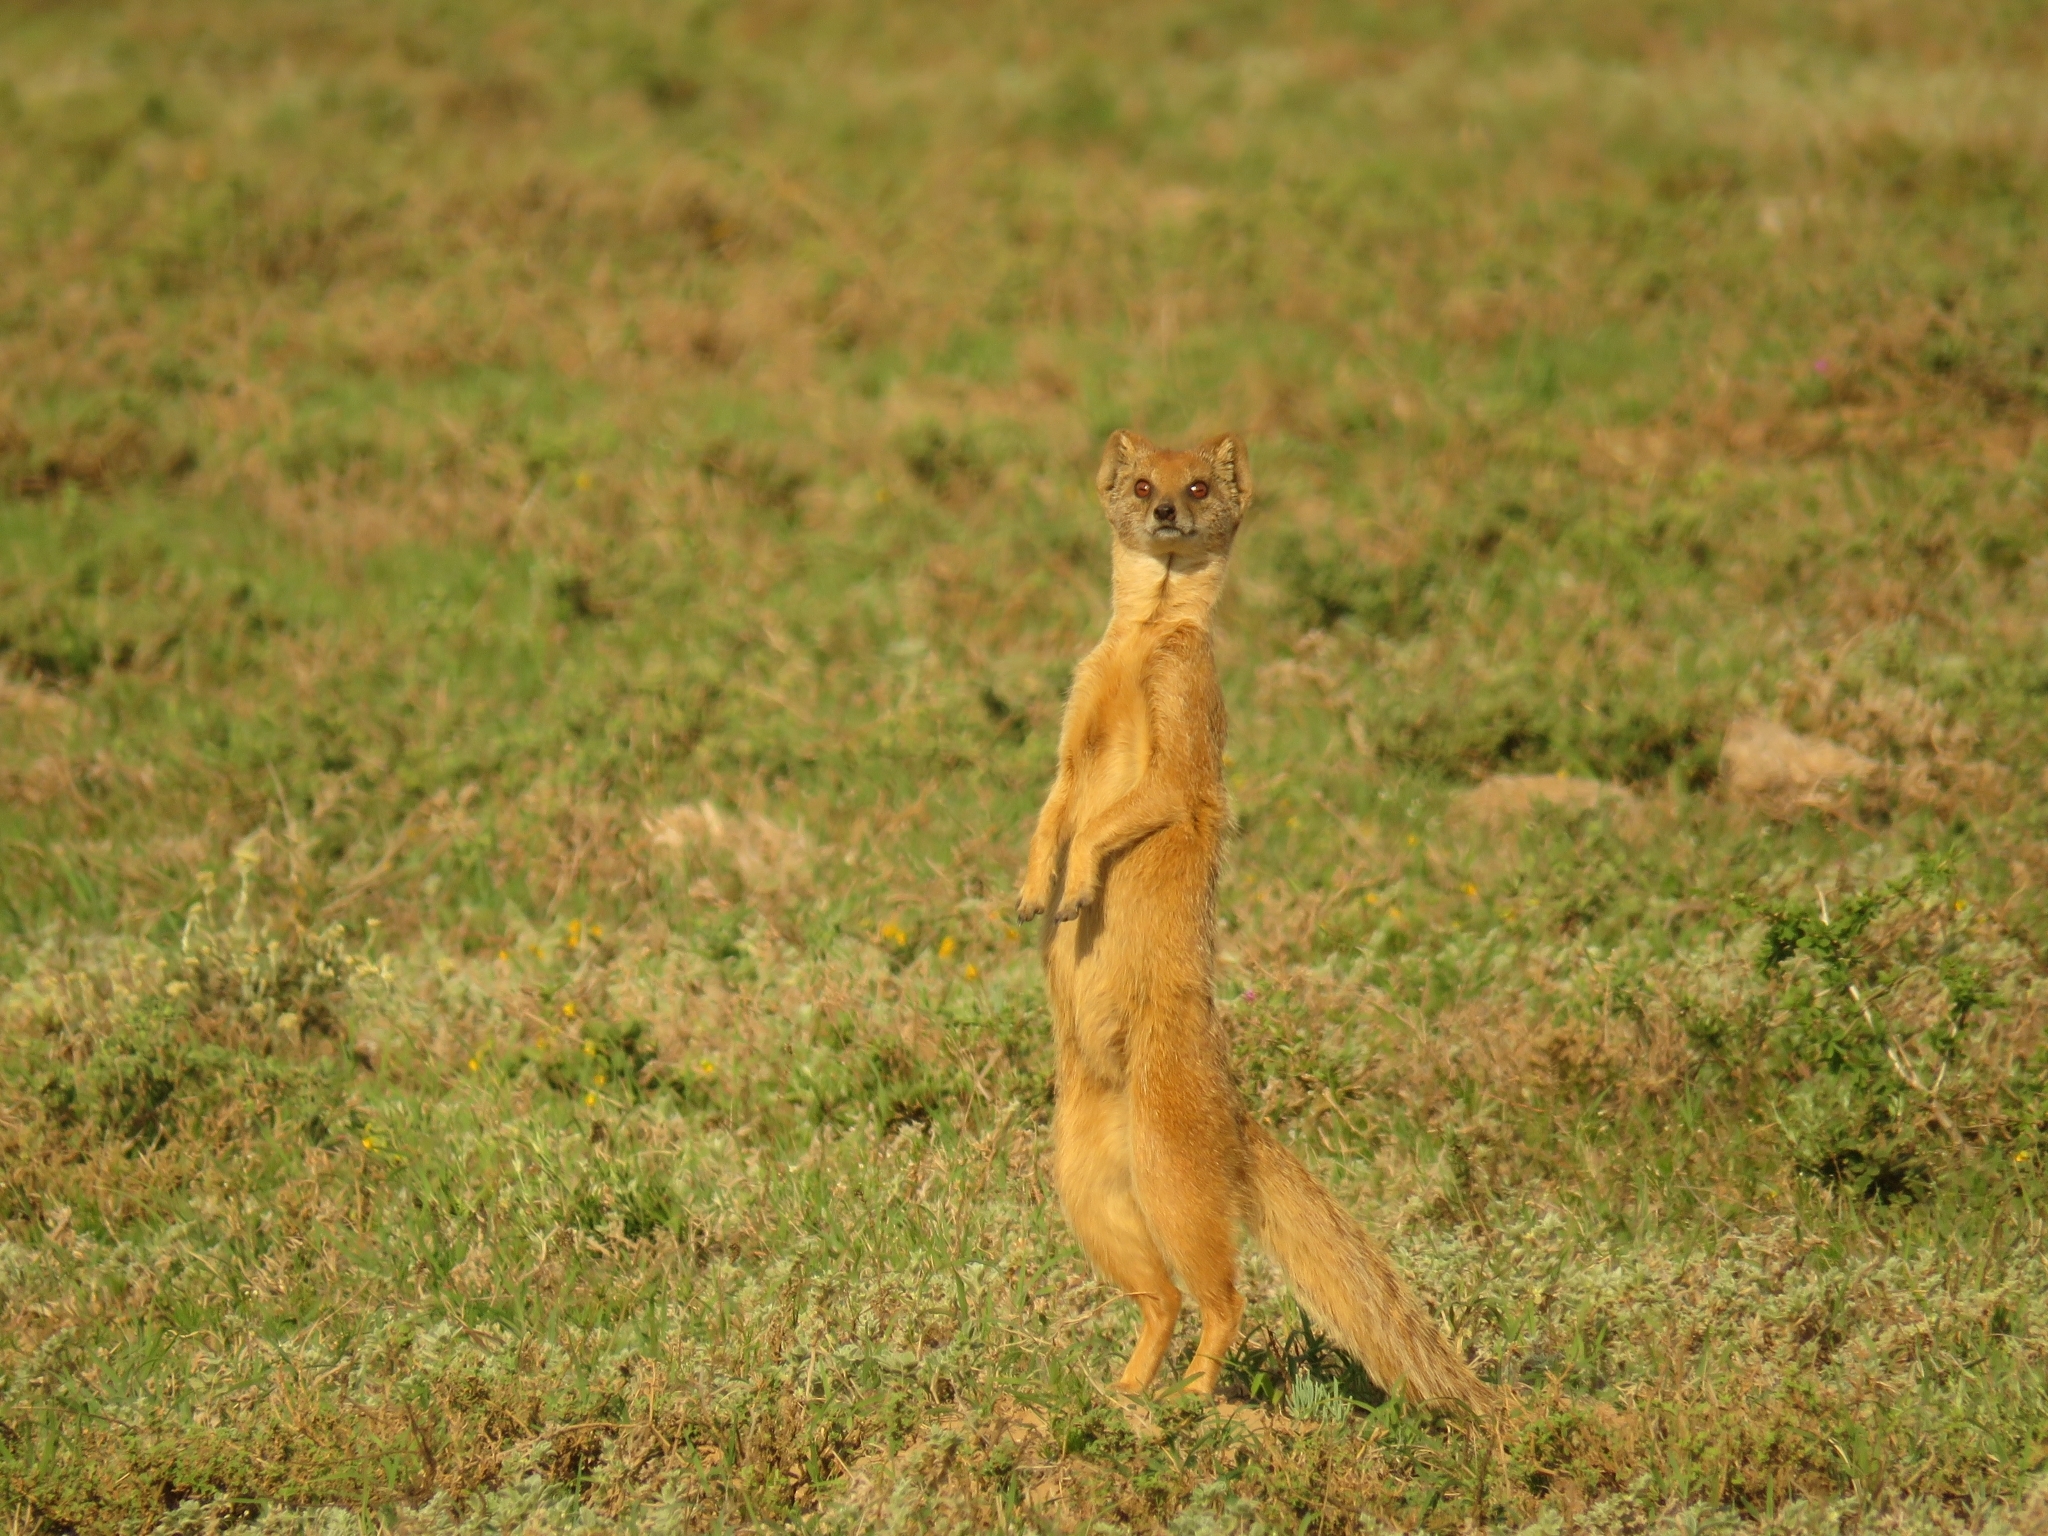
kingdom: Animalia
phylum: Chordata
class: Mammalia
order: Carnivora
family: Herpestidae
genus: Cynictis
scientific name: Cynictis penicillata
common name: Yellow mongoose
